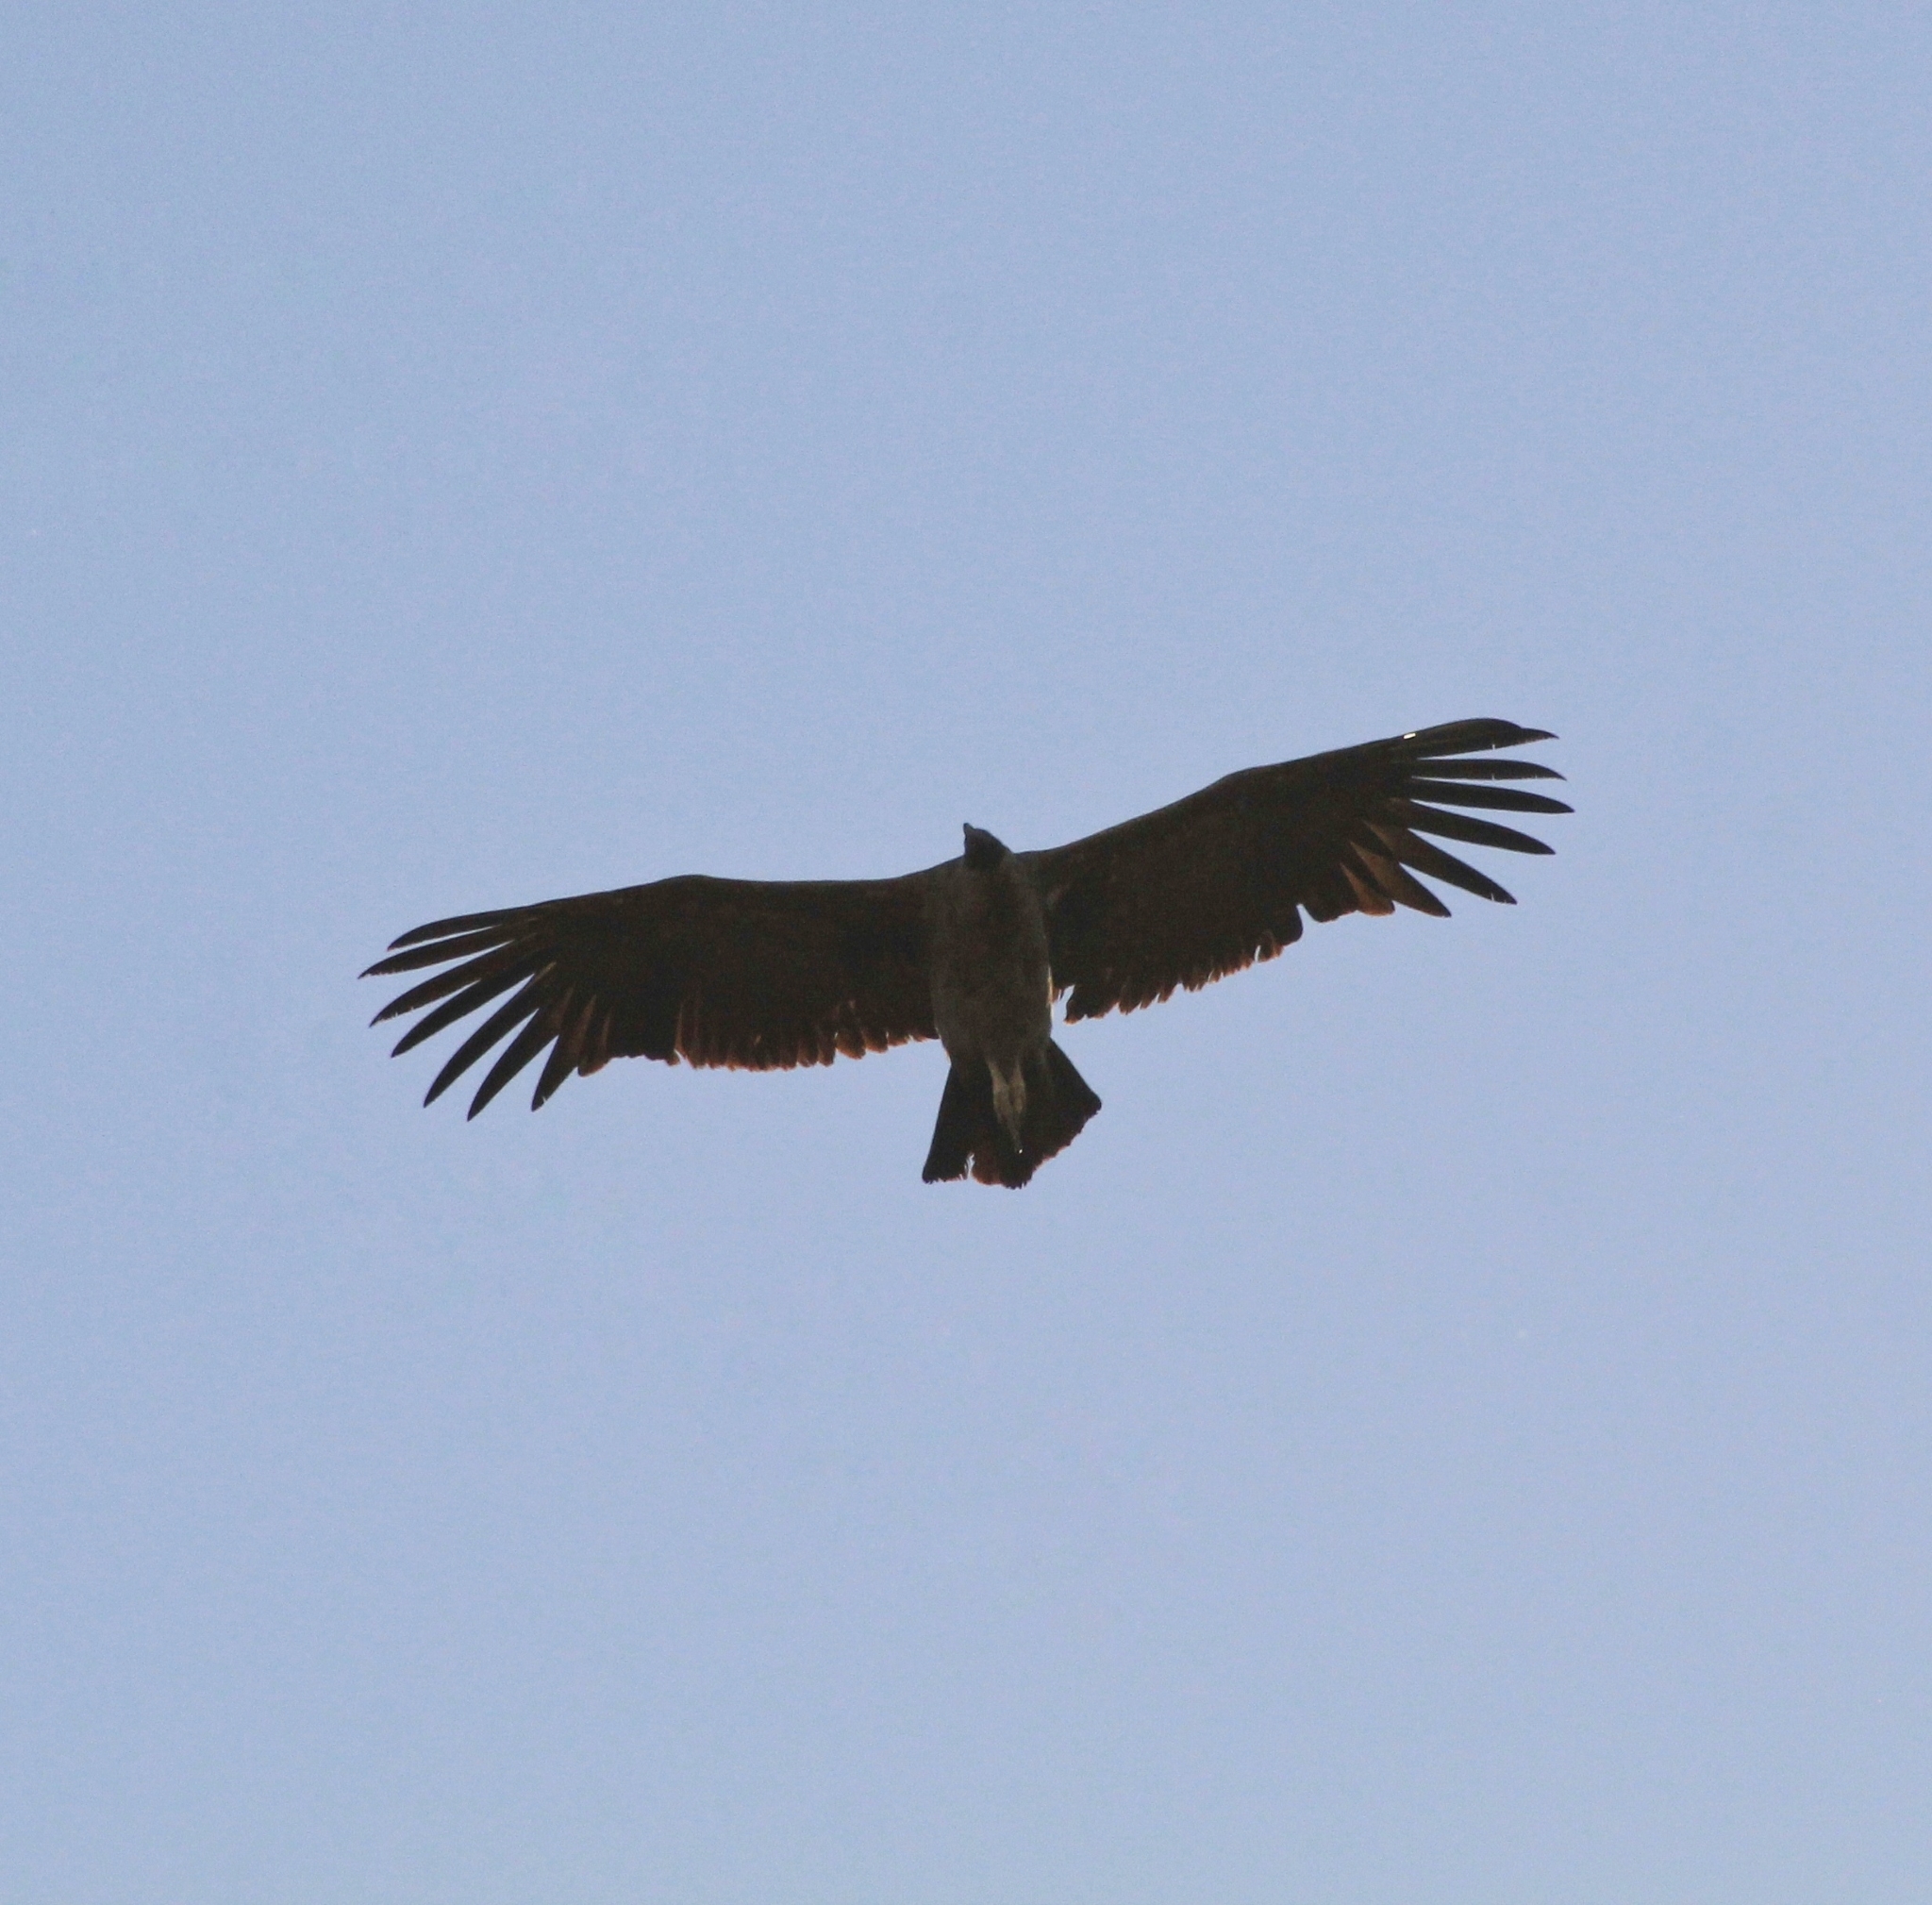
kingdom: Animalia
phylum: Chordata
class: Aves
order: Accipitriformes
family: Cathartidae
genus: Vultur
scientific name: Vultur gryphus
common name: Andean condor
